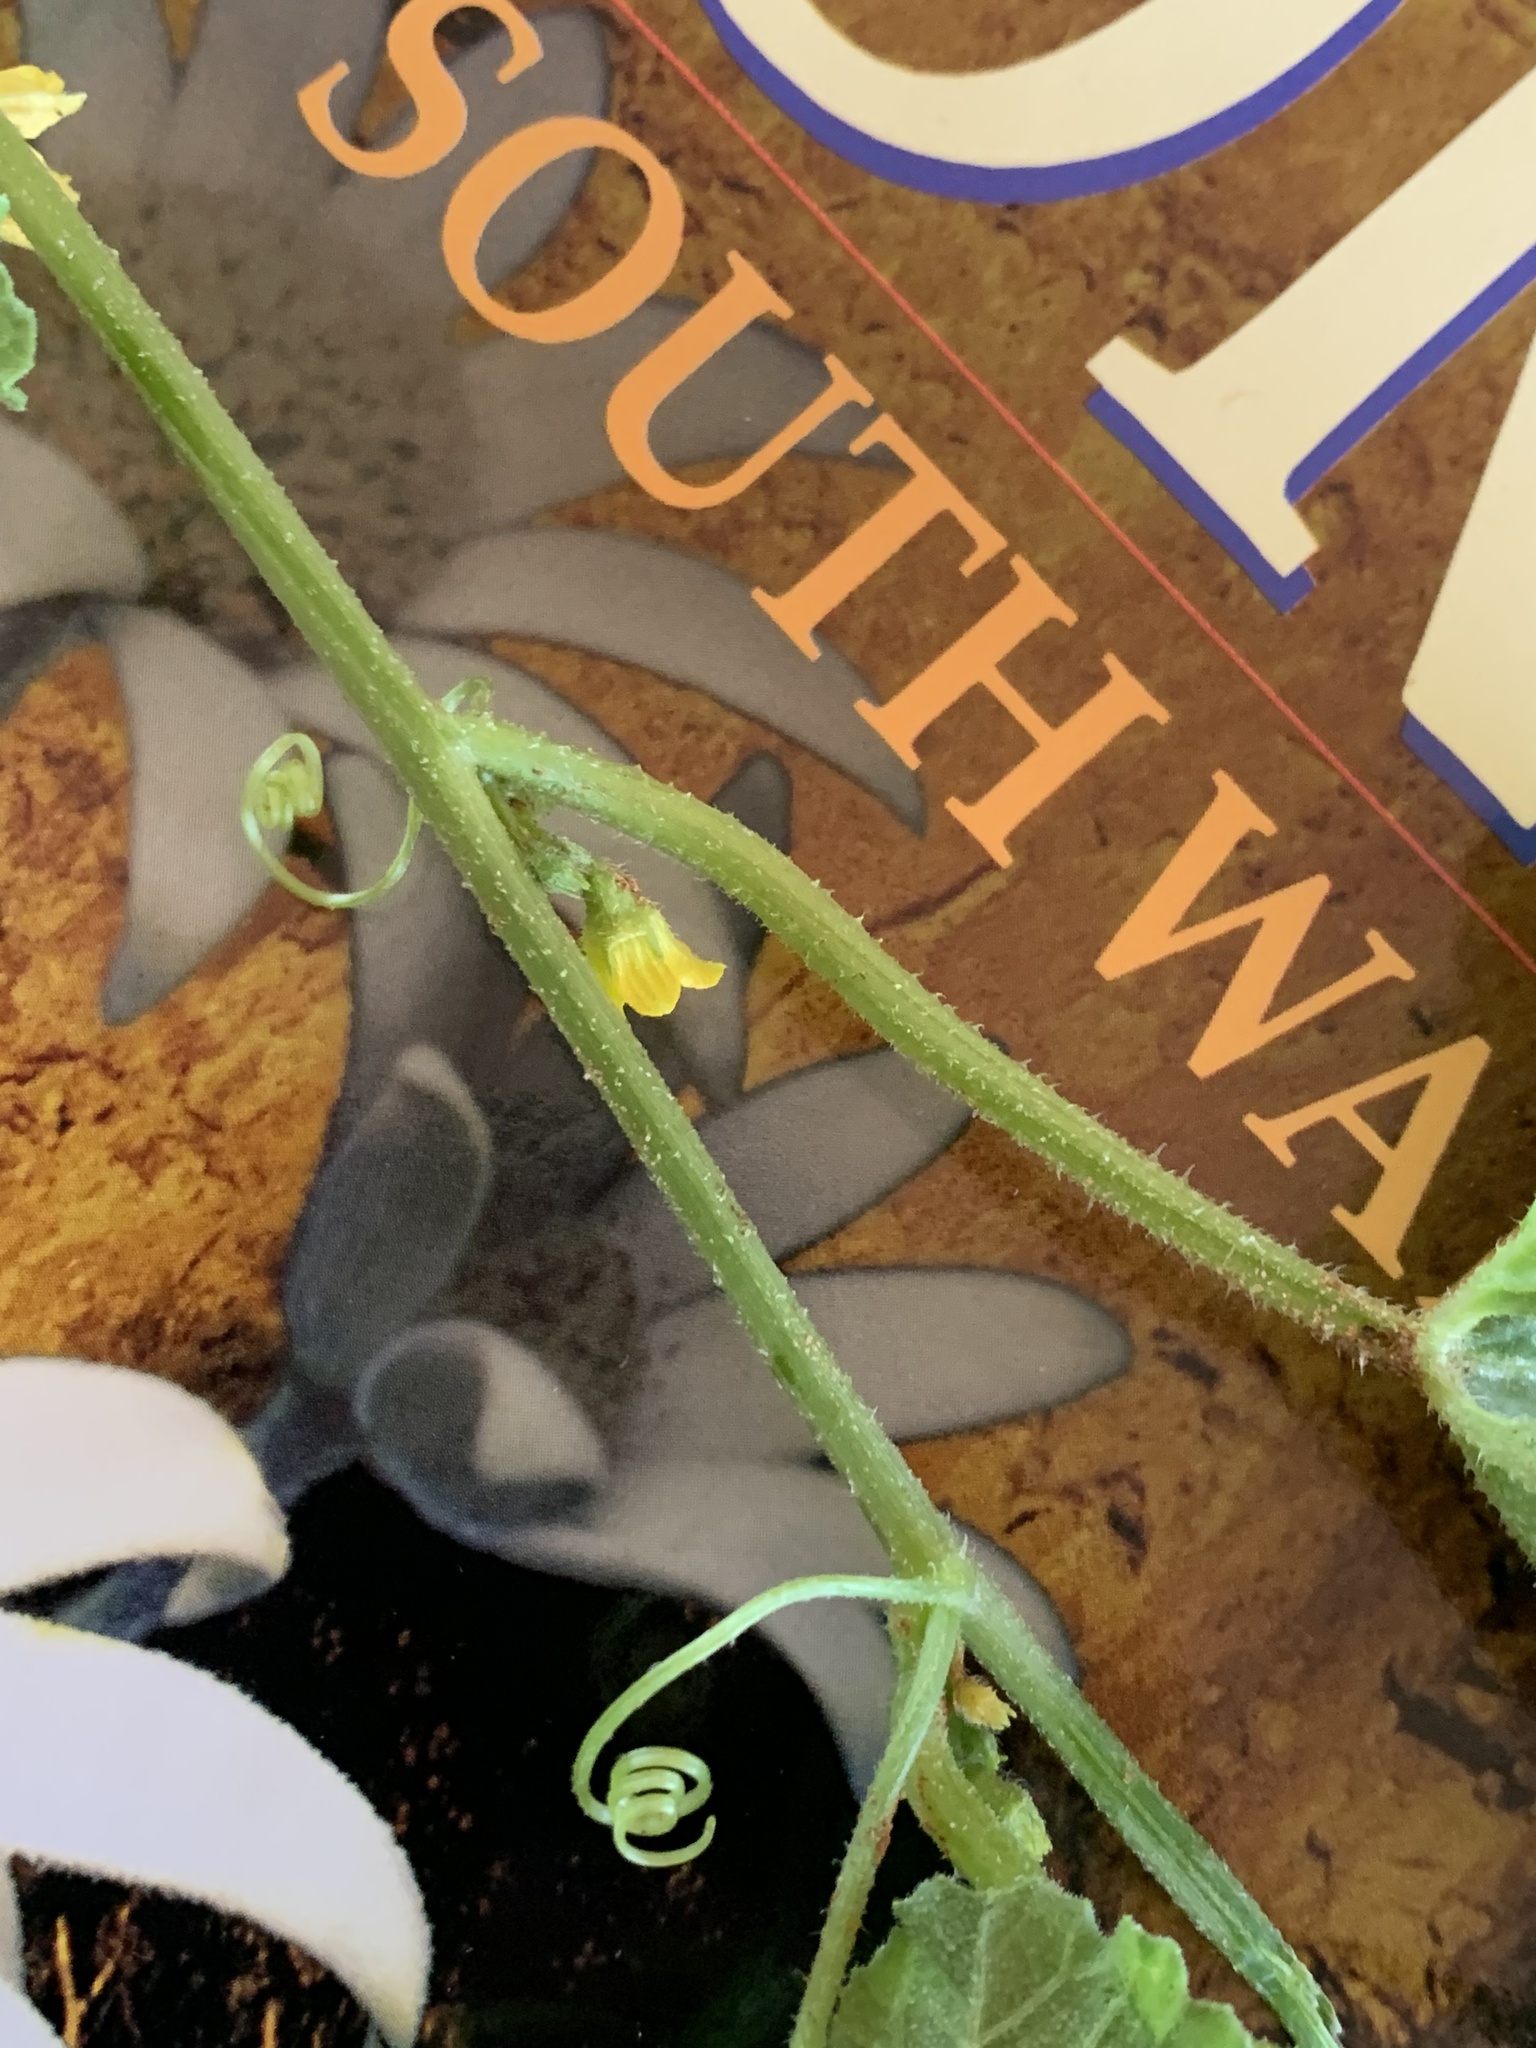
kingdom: Plantae
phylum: Tracheophyta
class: Magnoliopsida
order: Cucurbitales
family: Cucurbitaceae
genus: Cucumis
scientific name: Cucumis myriocarpus
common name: Gooseberry cucumber
